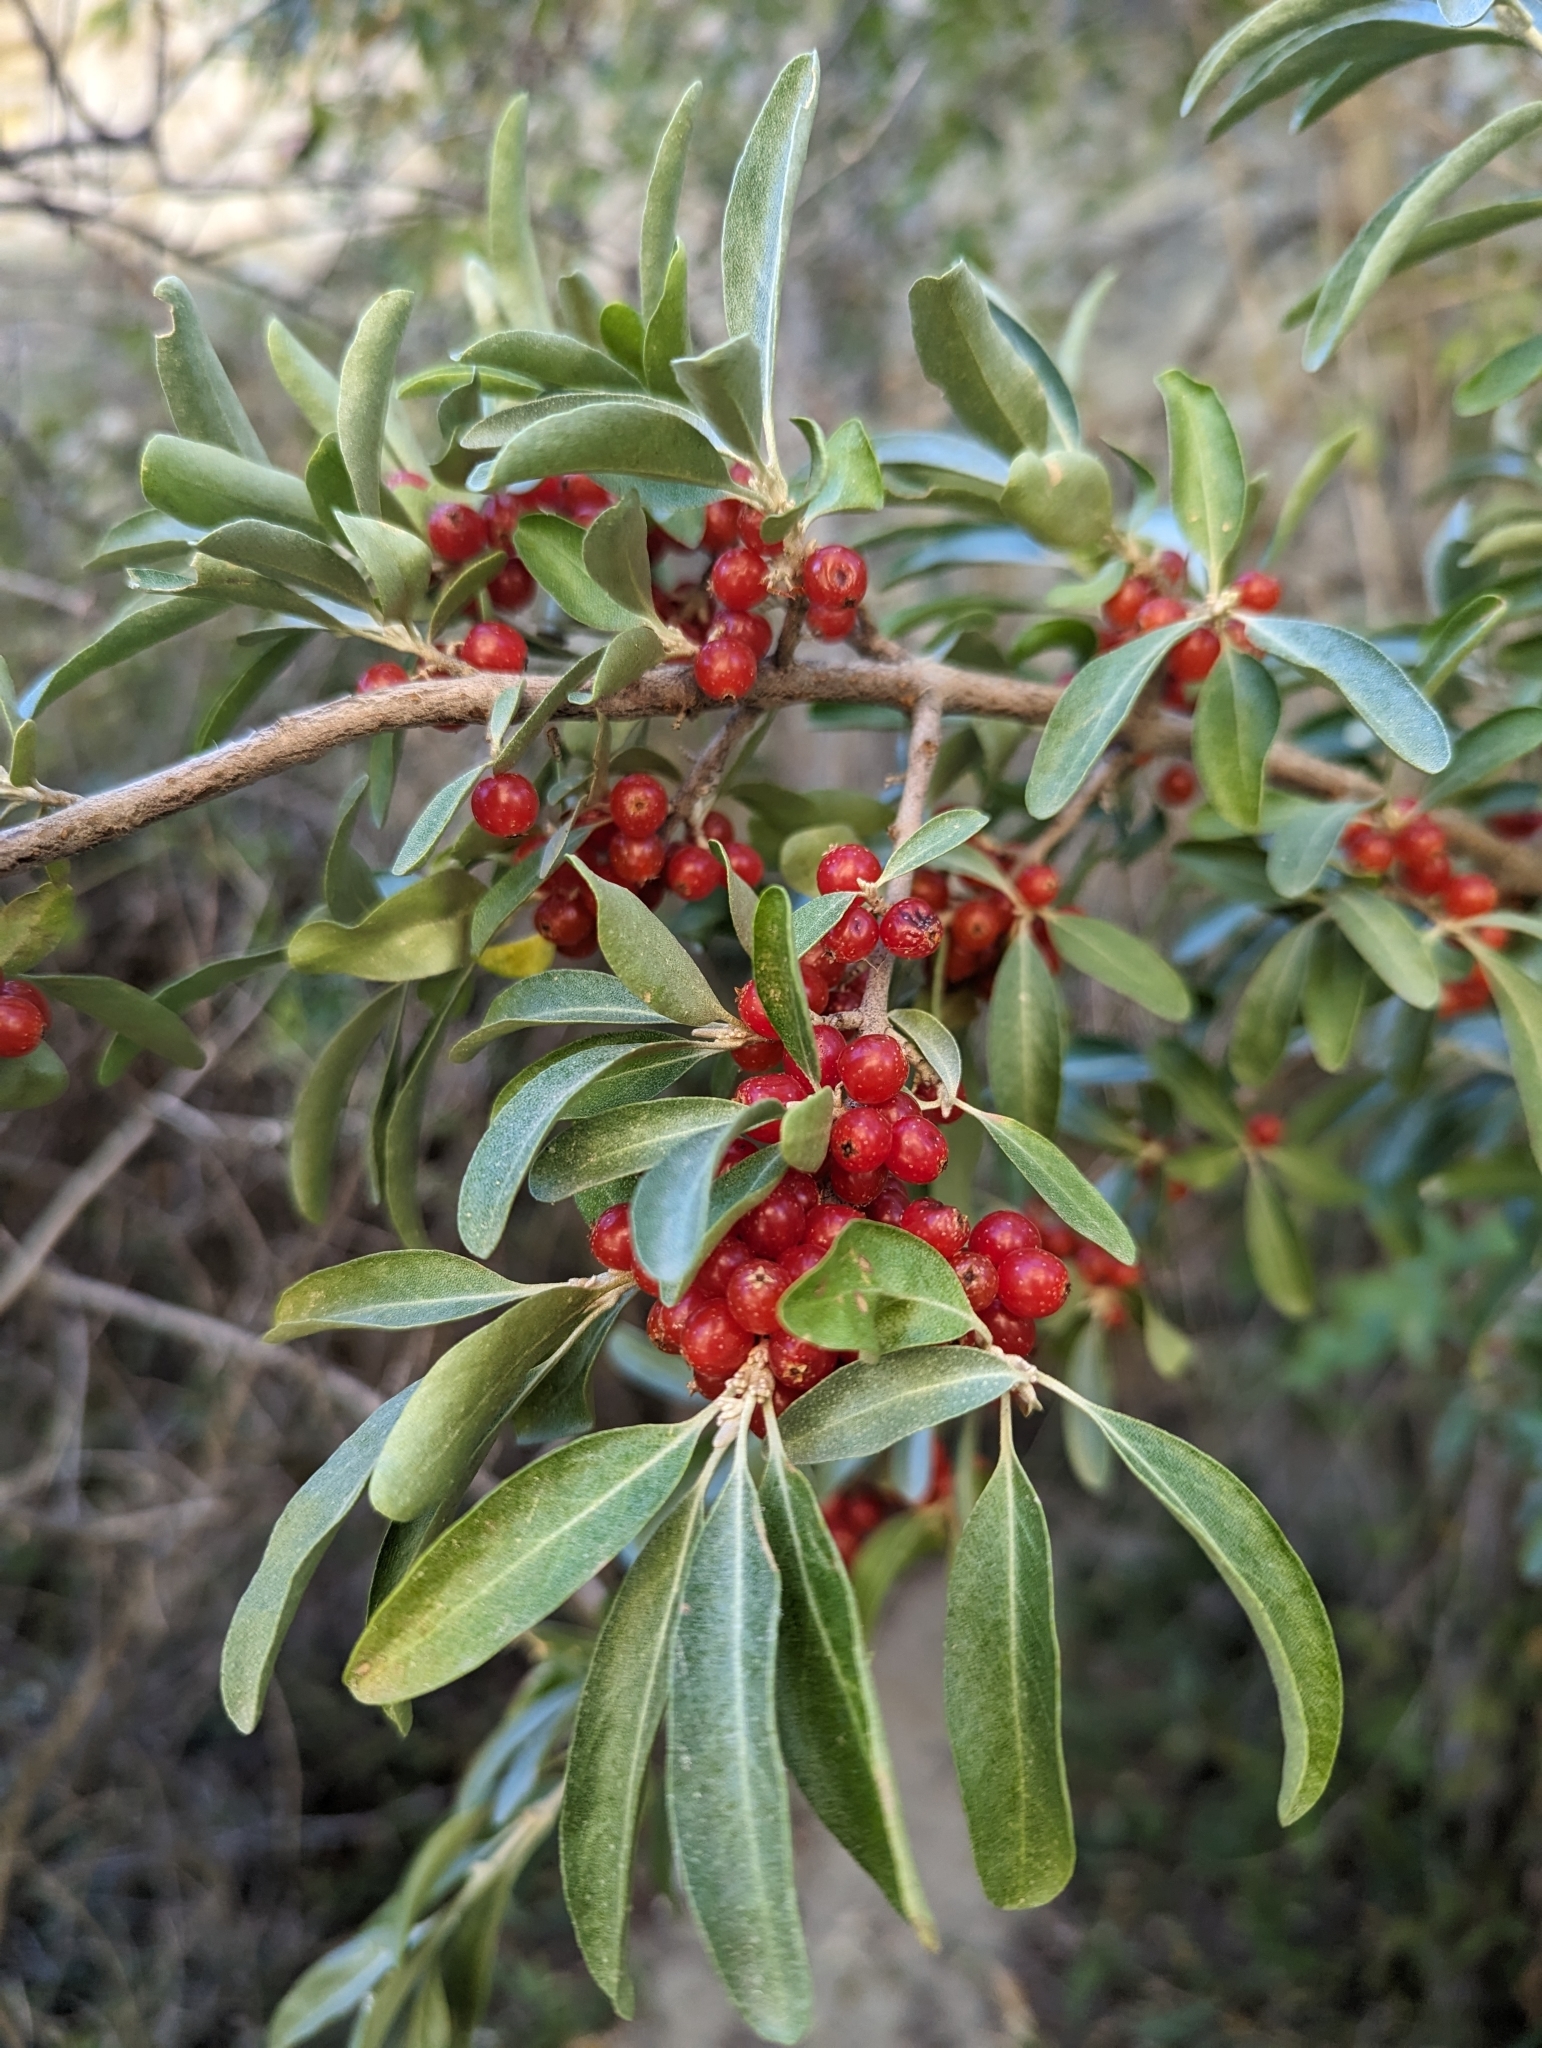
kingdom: Plantae
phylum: Tracheophyta
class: Magnoliopsida
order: Rosales
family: Elaeagnaceae
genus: Shepherdia
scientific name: Shepherdia argentea
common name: Silver buffaloberry
